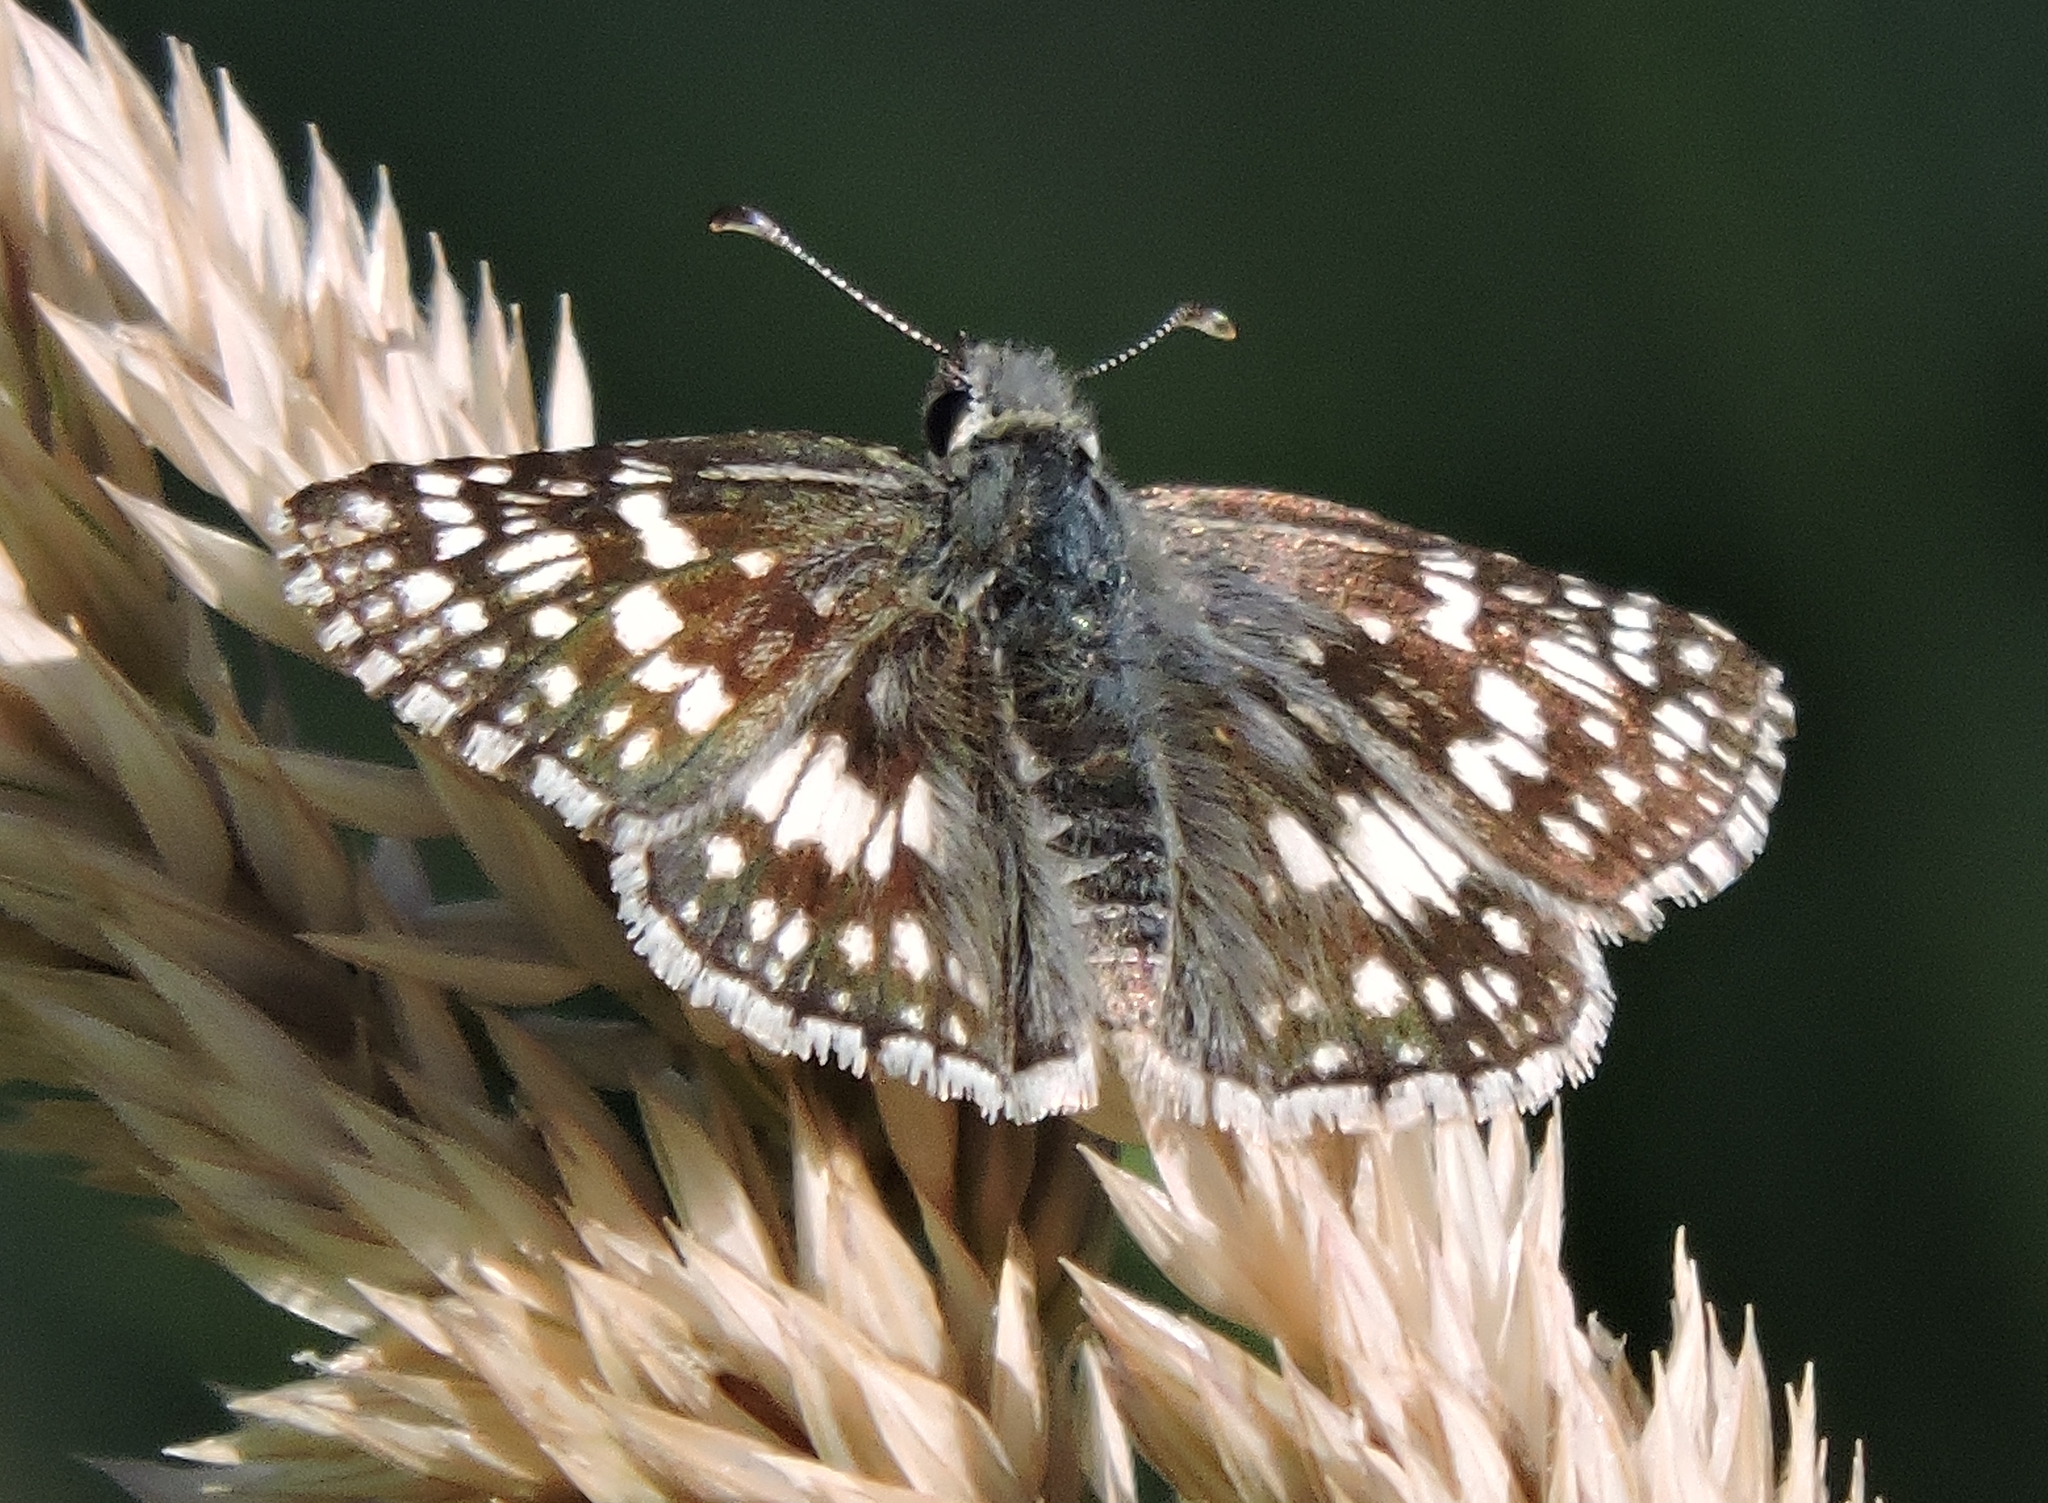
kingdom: Animalia
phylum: Arthropoda
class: Insecta
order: Lepidoptera
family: Hesperiidae
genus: Burnsius
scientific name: Burnsius communis
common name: Common checkered-skipper
